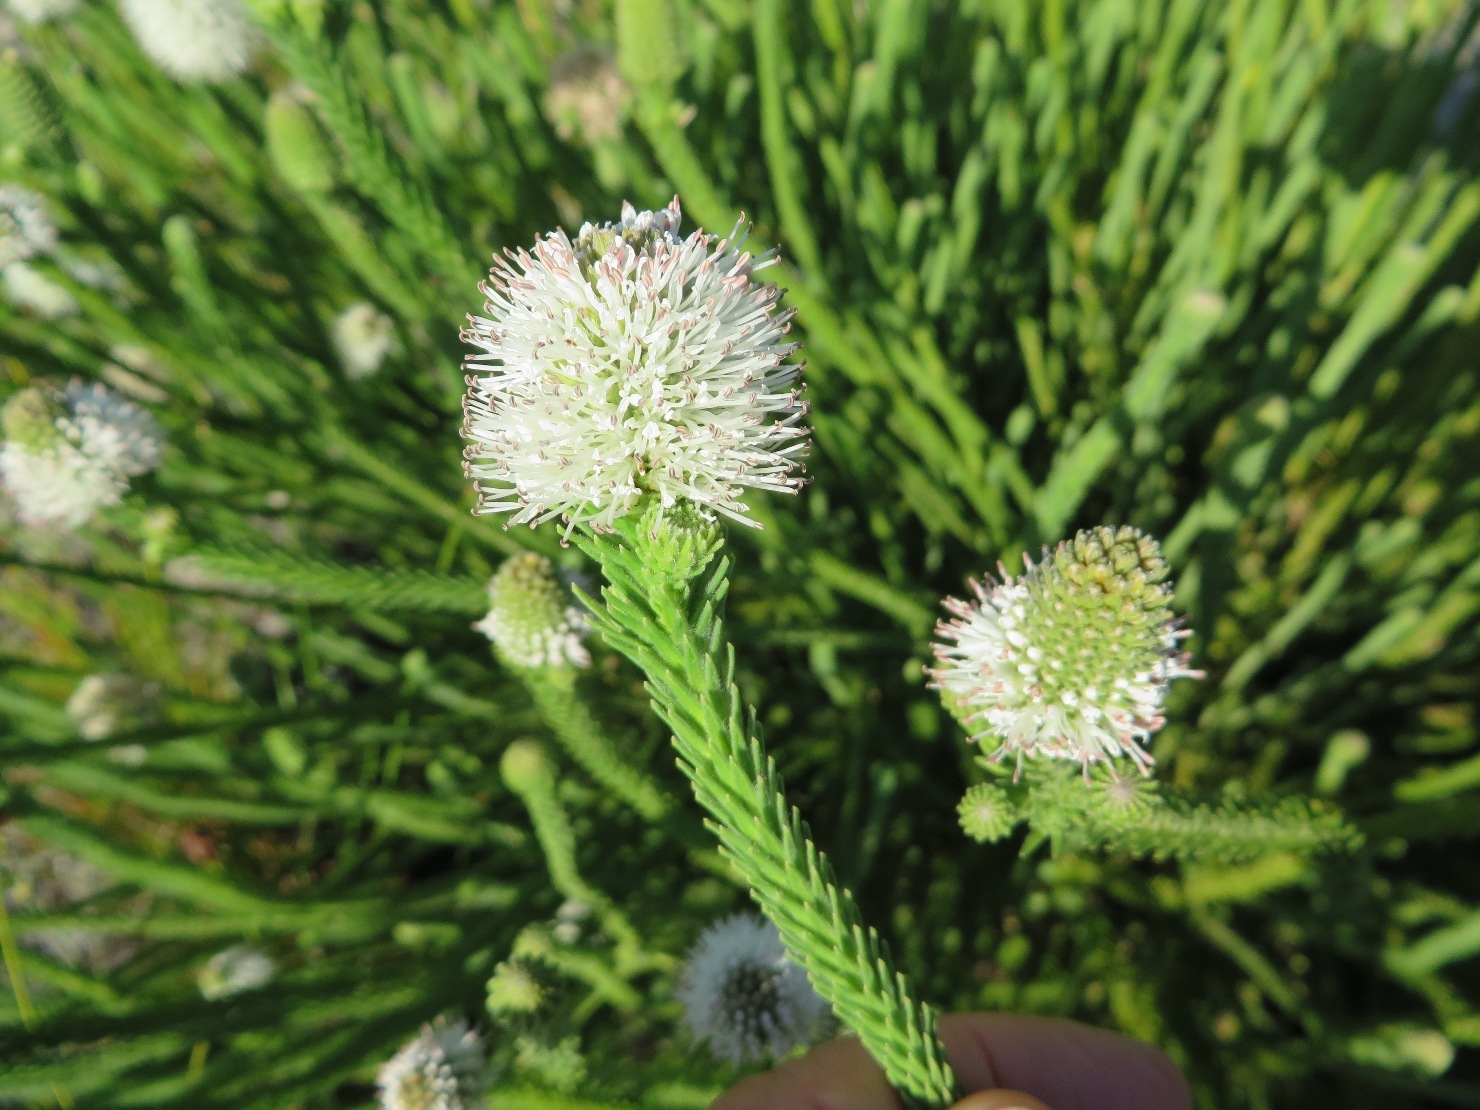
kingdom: Plantae
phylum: Tracheophyta
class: Magnoliopsida
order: Lamiales
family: Stilbaceae
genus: Stilbe
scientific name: Stilbe albiflora
